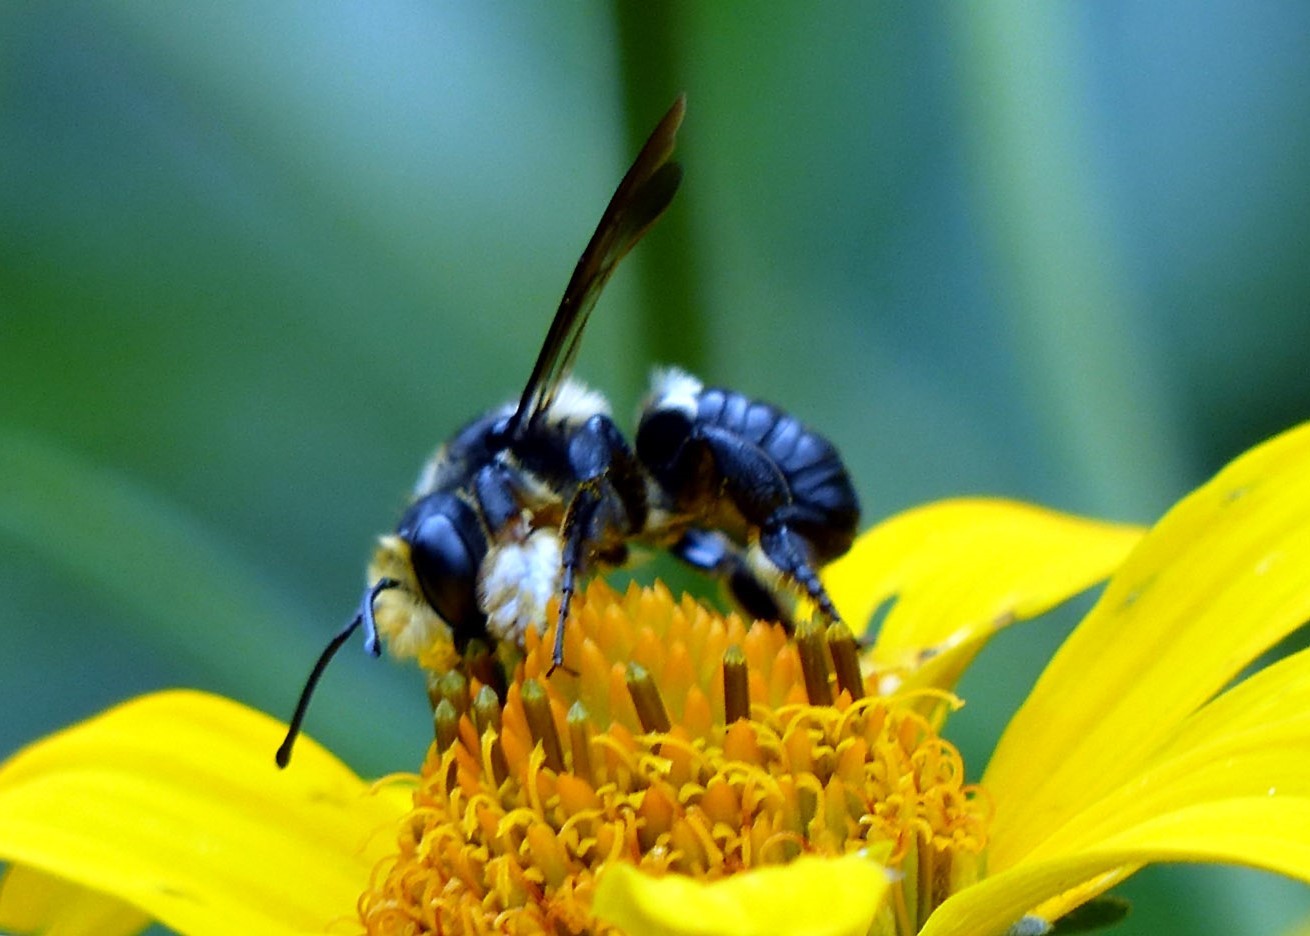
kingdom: Animalia
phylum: Arthropoda
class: Insecta
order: Hymenoptera
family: Megachilidae
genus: Megachile
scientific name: Megachile xylocopoides
